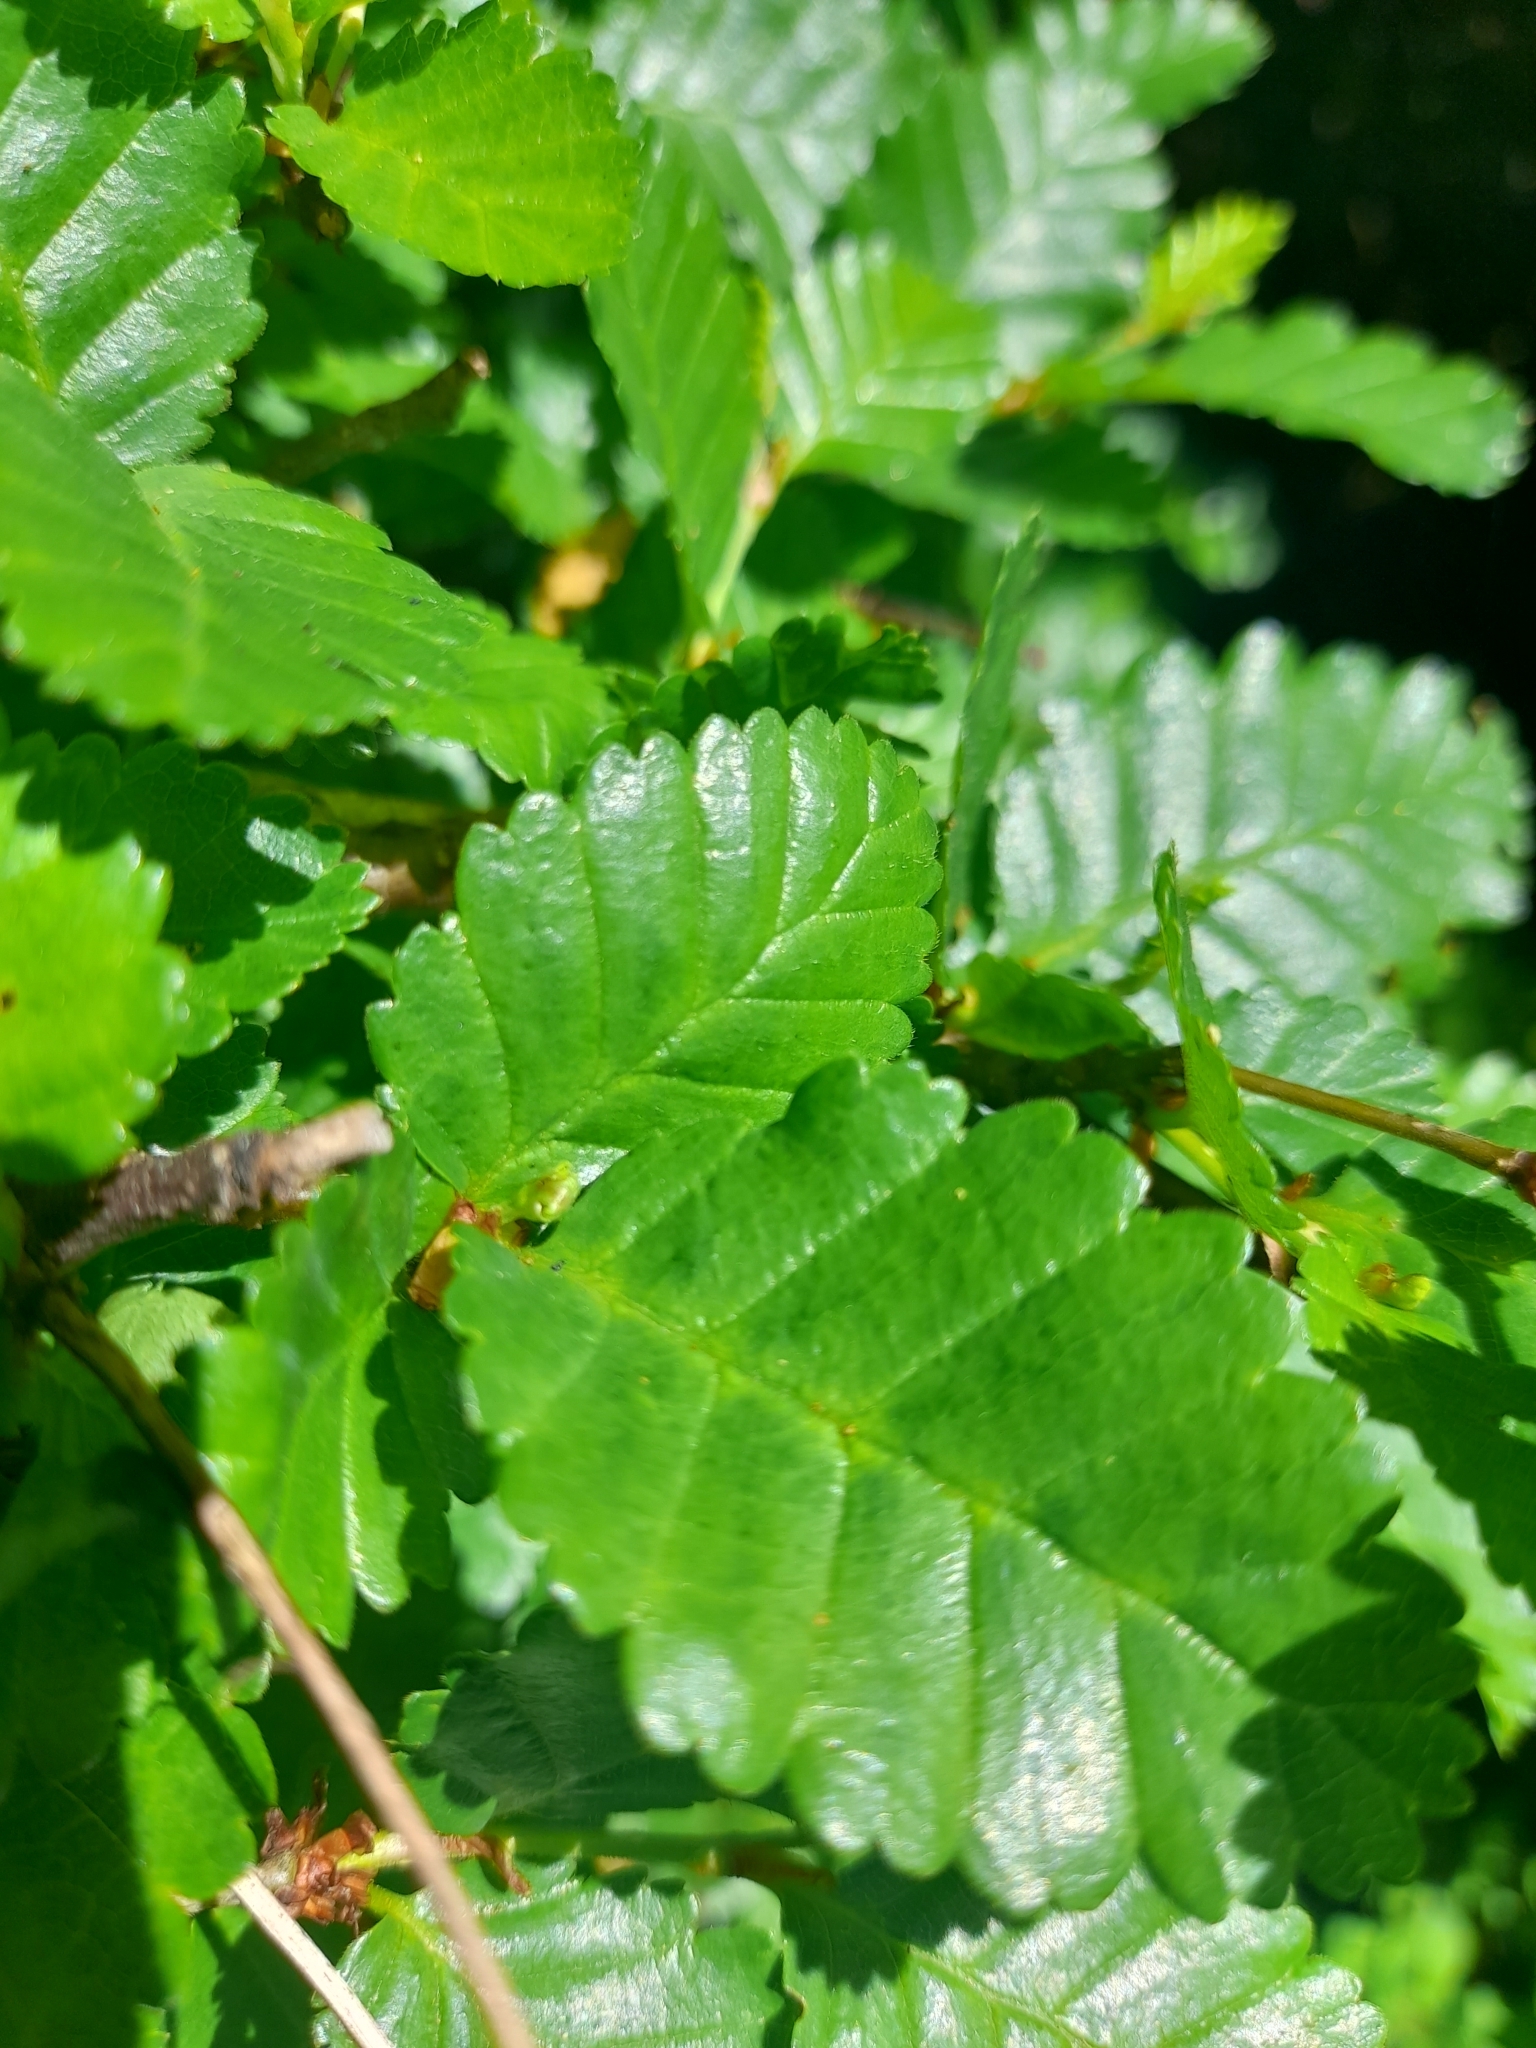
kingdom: Plantae
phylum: Tracheophyta
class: Magnoliopsida
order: Fagales
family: Nothofagaceae
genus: Nothofagus
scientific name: Nothofagus pumilio
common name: Lenga beech
